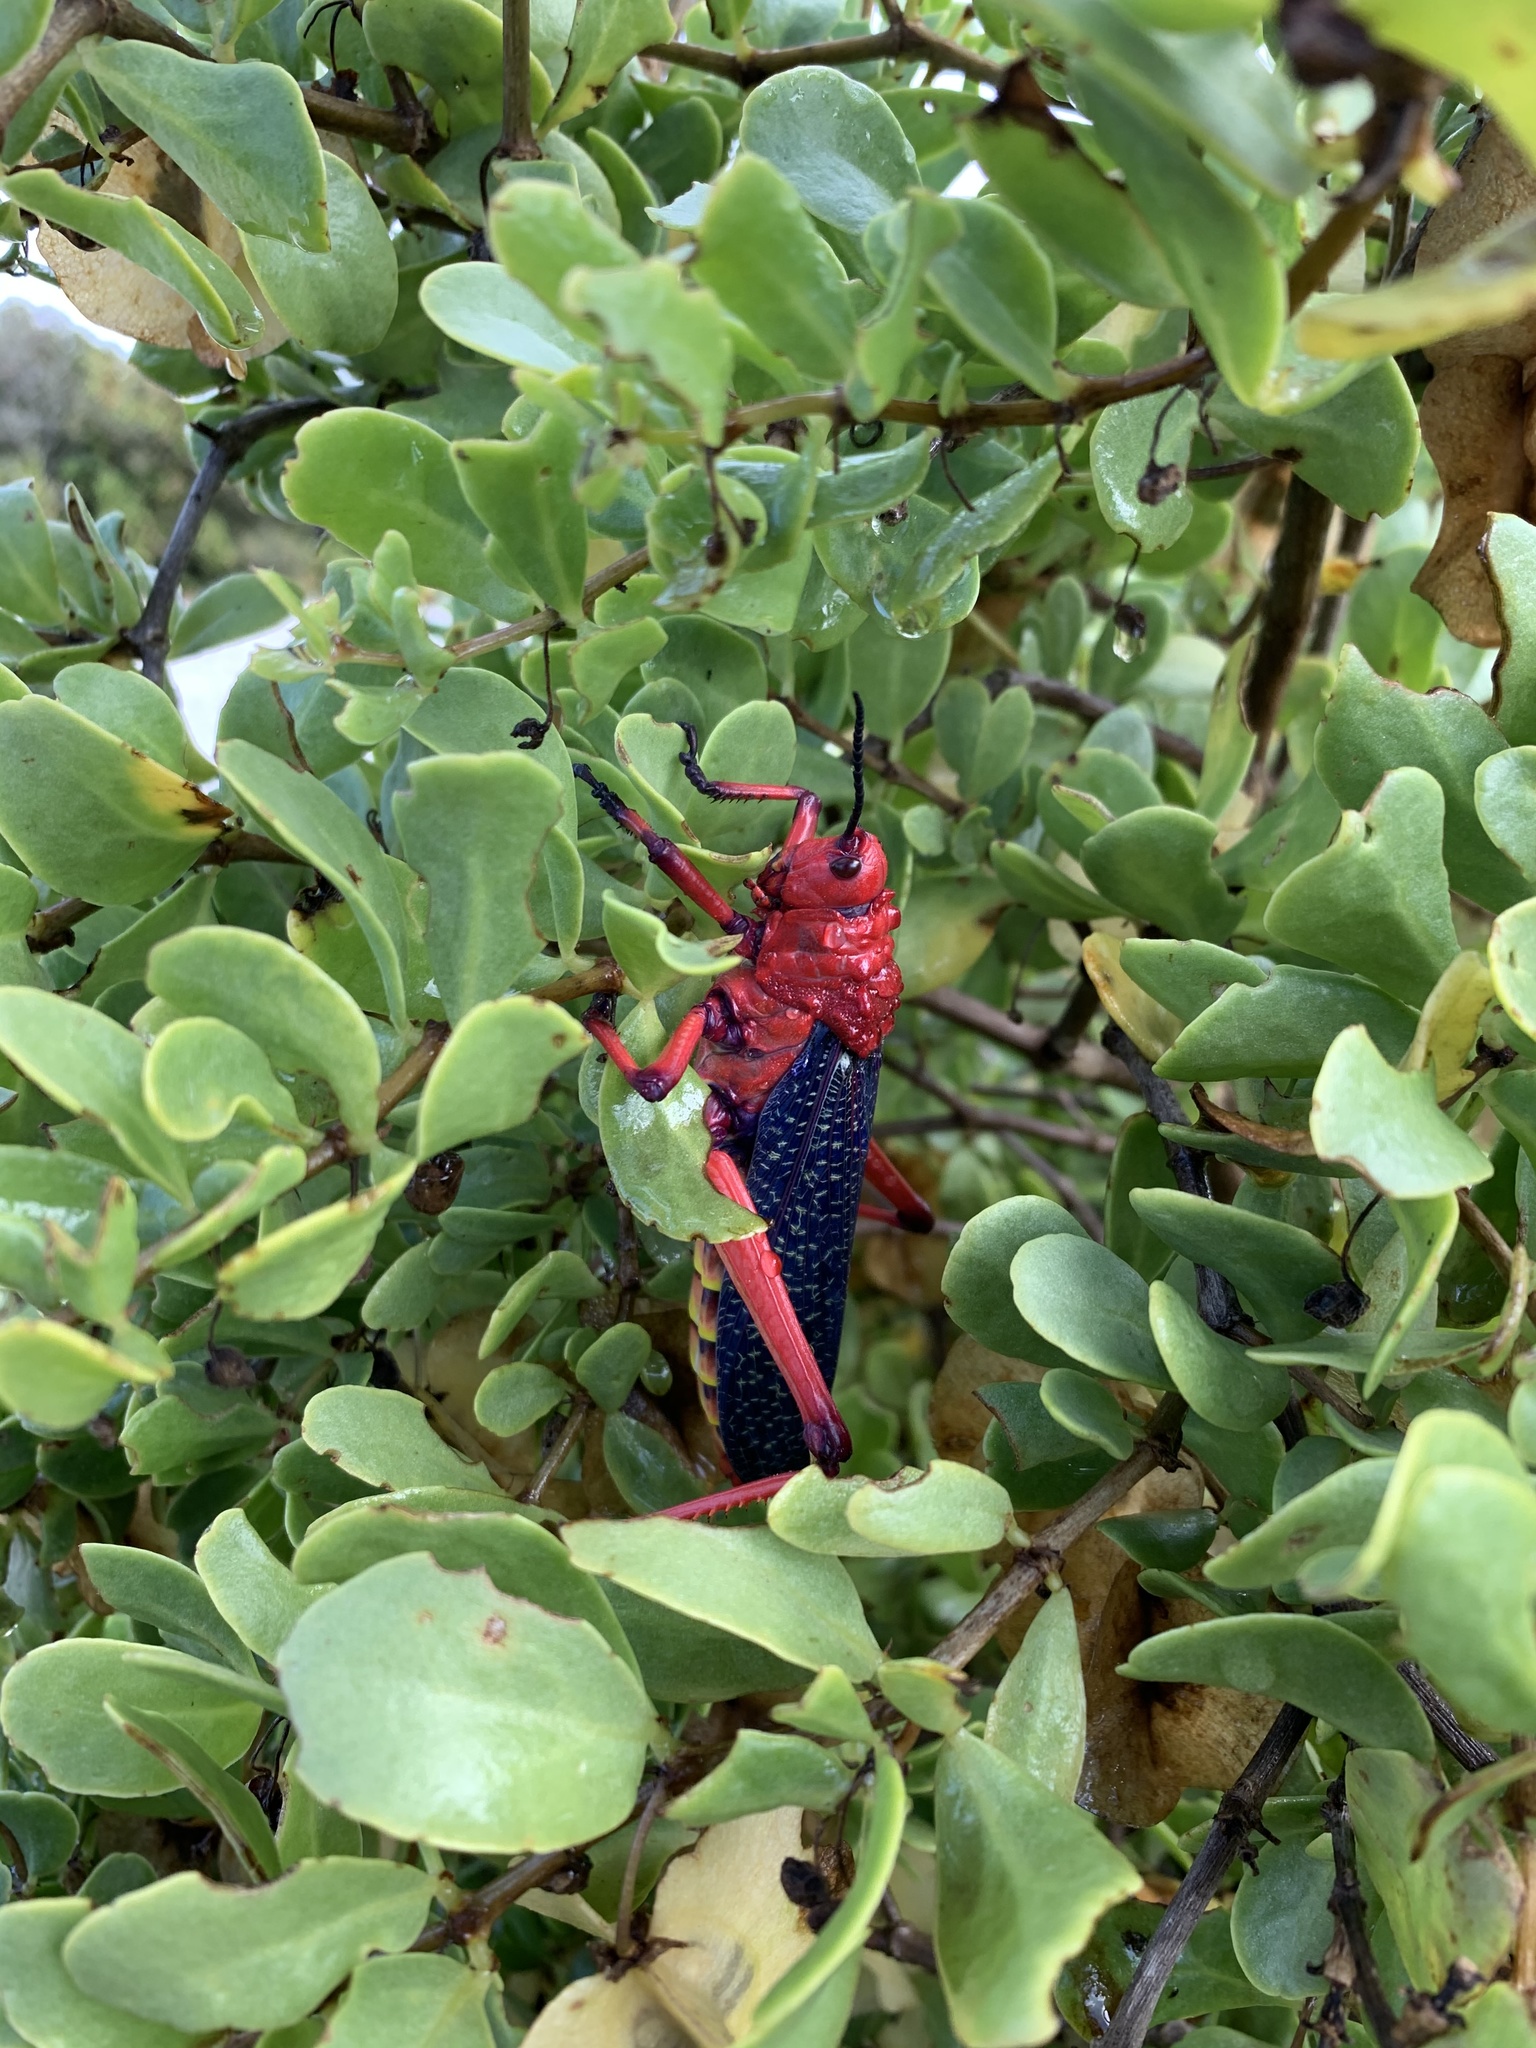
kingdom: Animalia
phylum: Arthropoda
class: Insecta
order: Orthoptera
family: Pyrgomorphidae
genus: Phymateus
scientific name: Phymateus morbillosus
